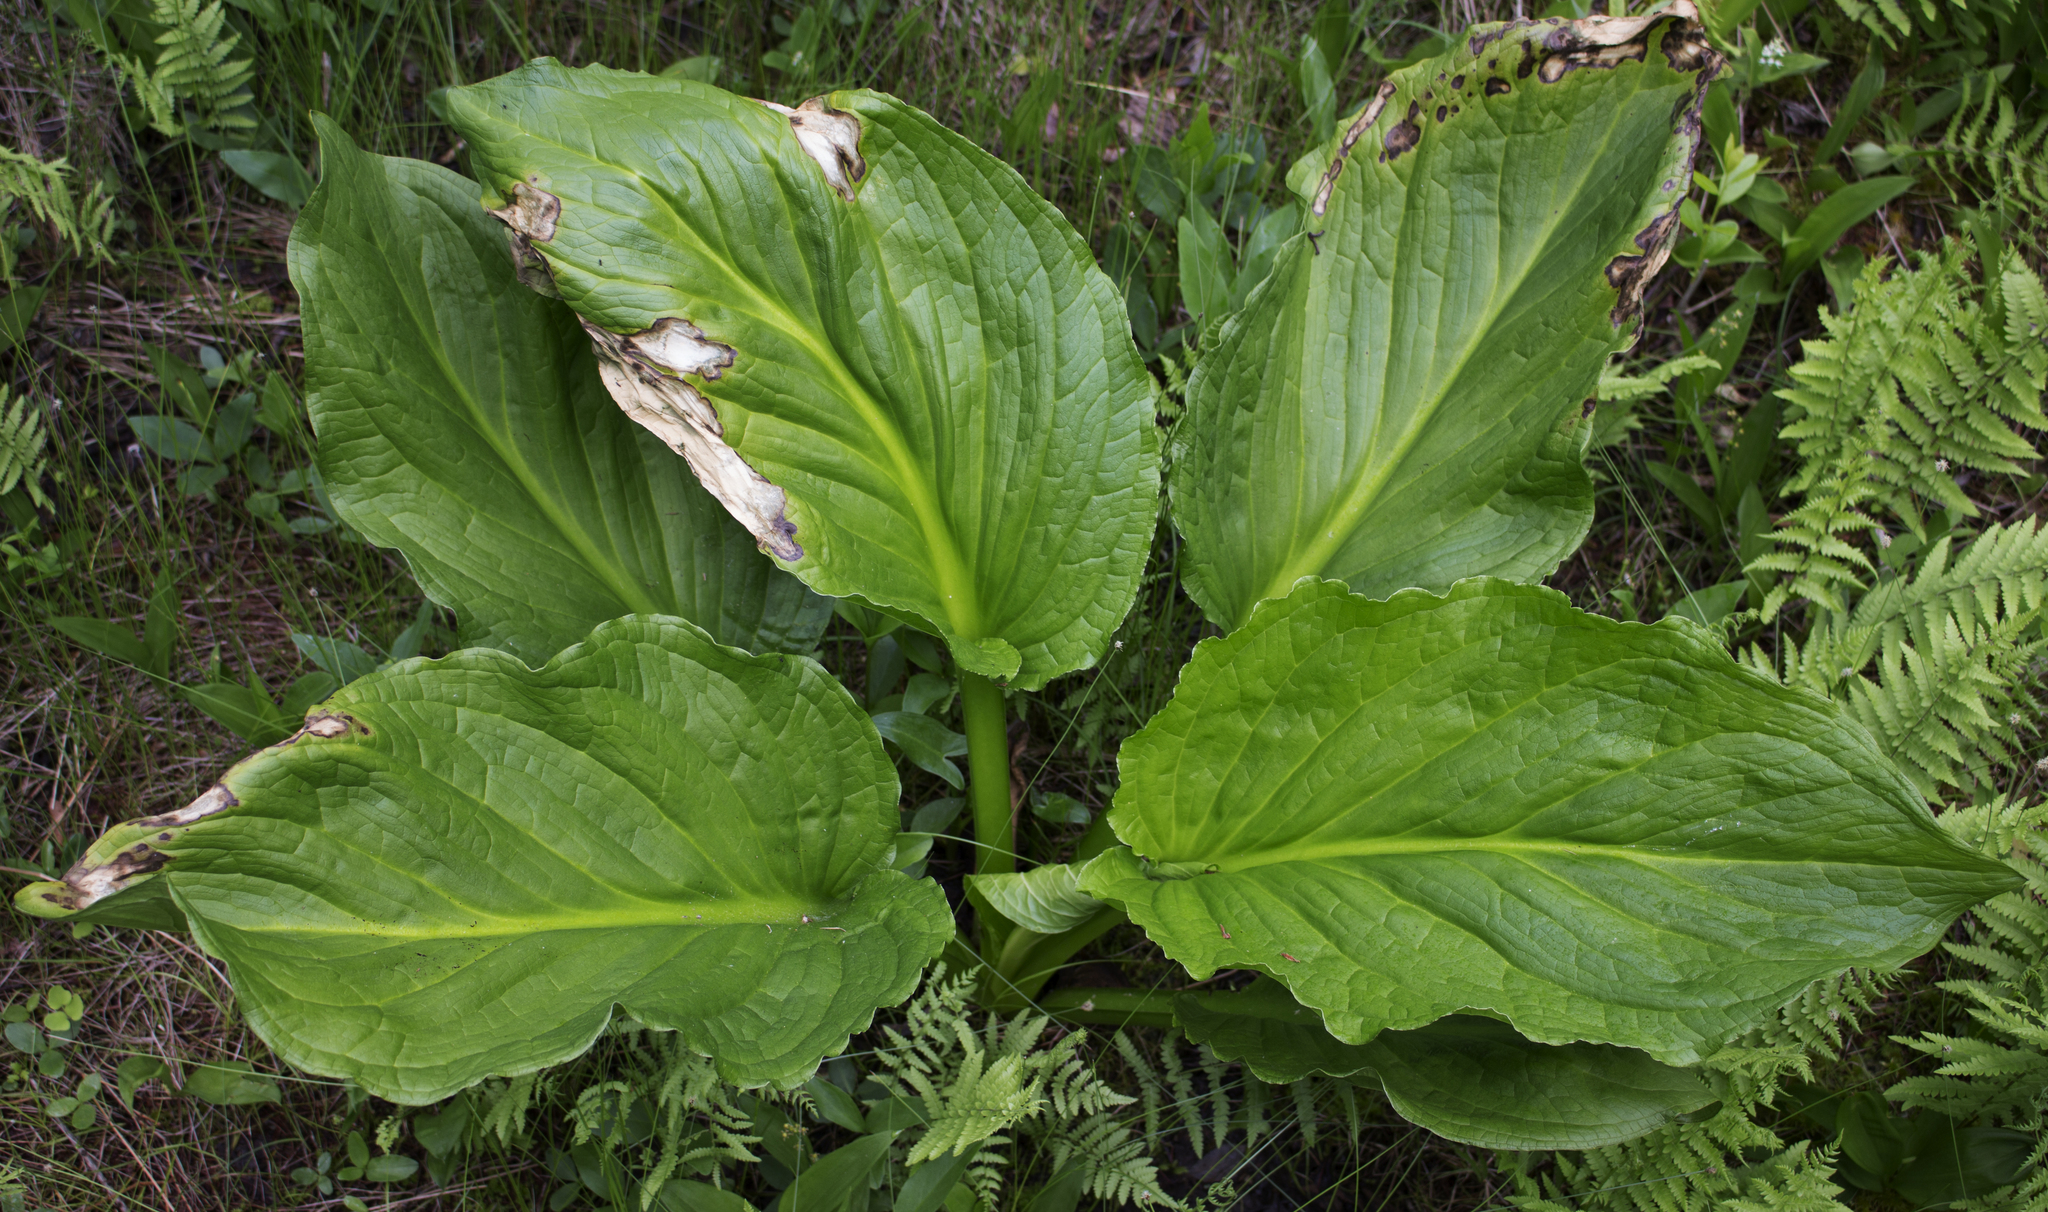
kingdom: Plantae
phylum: Tracheophyta
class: Liliopsida
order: Alismatales
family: Araceae
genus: Symplocarpus
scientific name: Symplocarpus foetidus
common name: Eastern skunk cabbage
